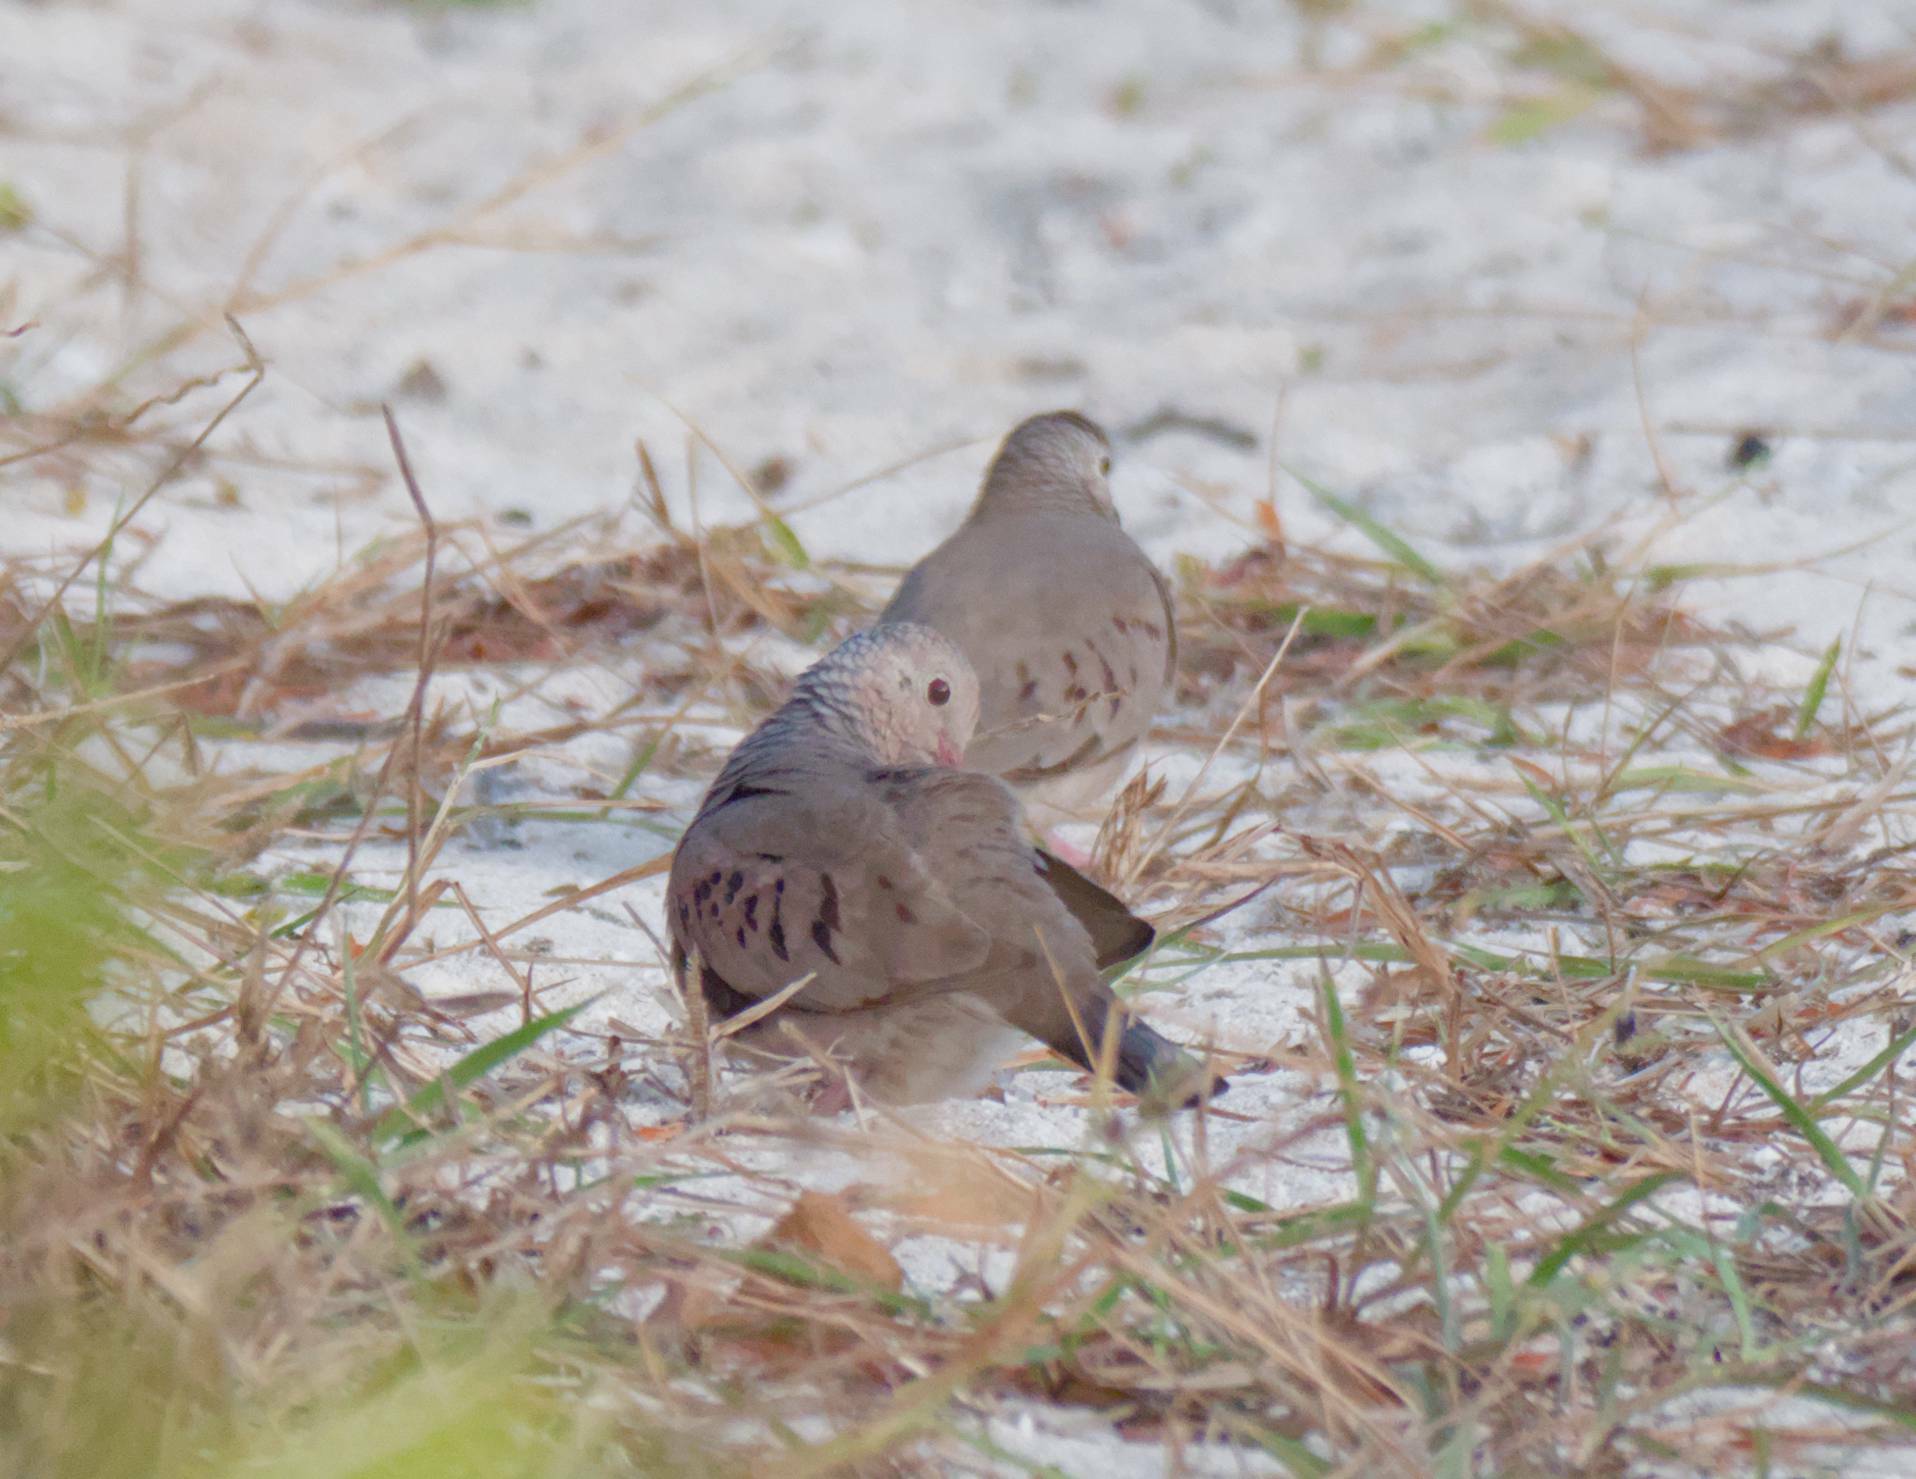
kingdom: Animalia
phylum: Chordata
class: Aves
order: Columbiformes
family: Columbidae
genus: Columbina
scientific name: Columbina passerina
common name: Common ground-dove
